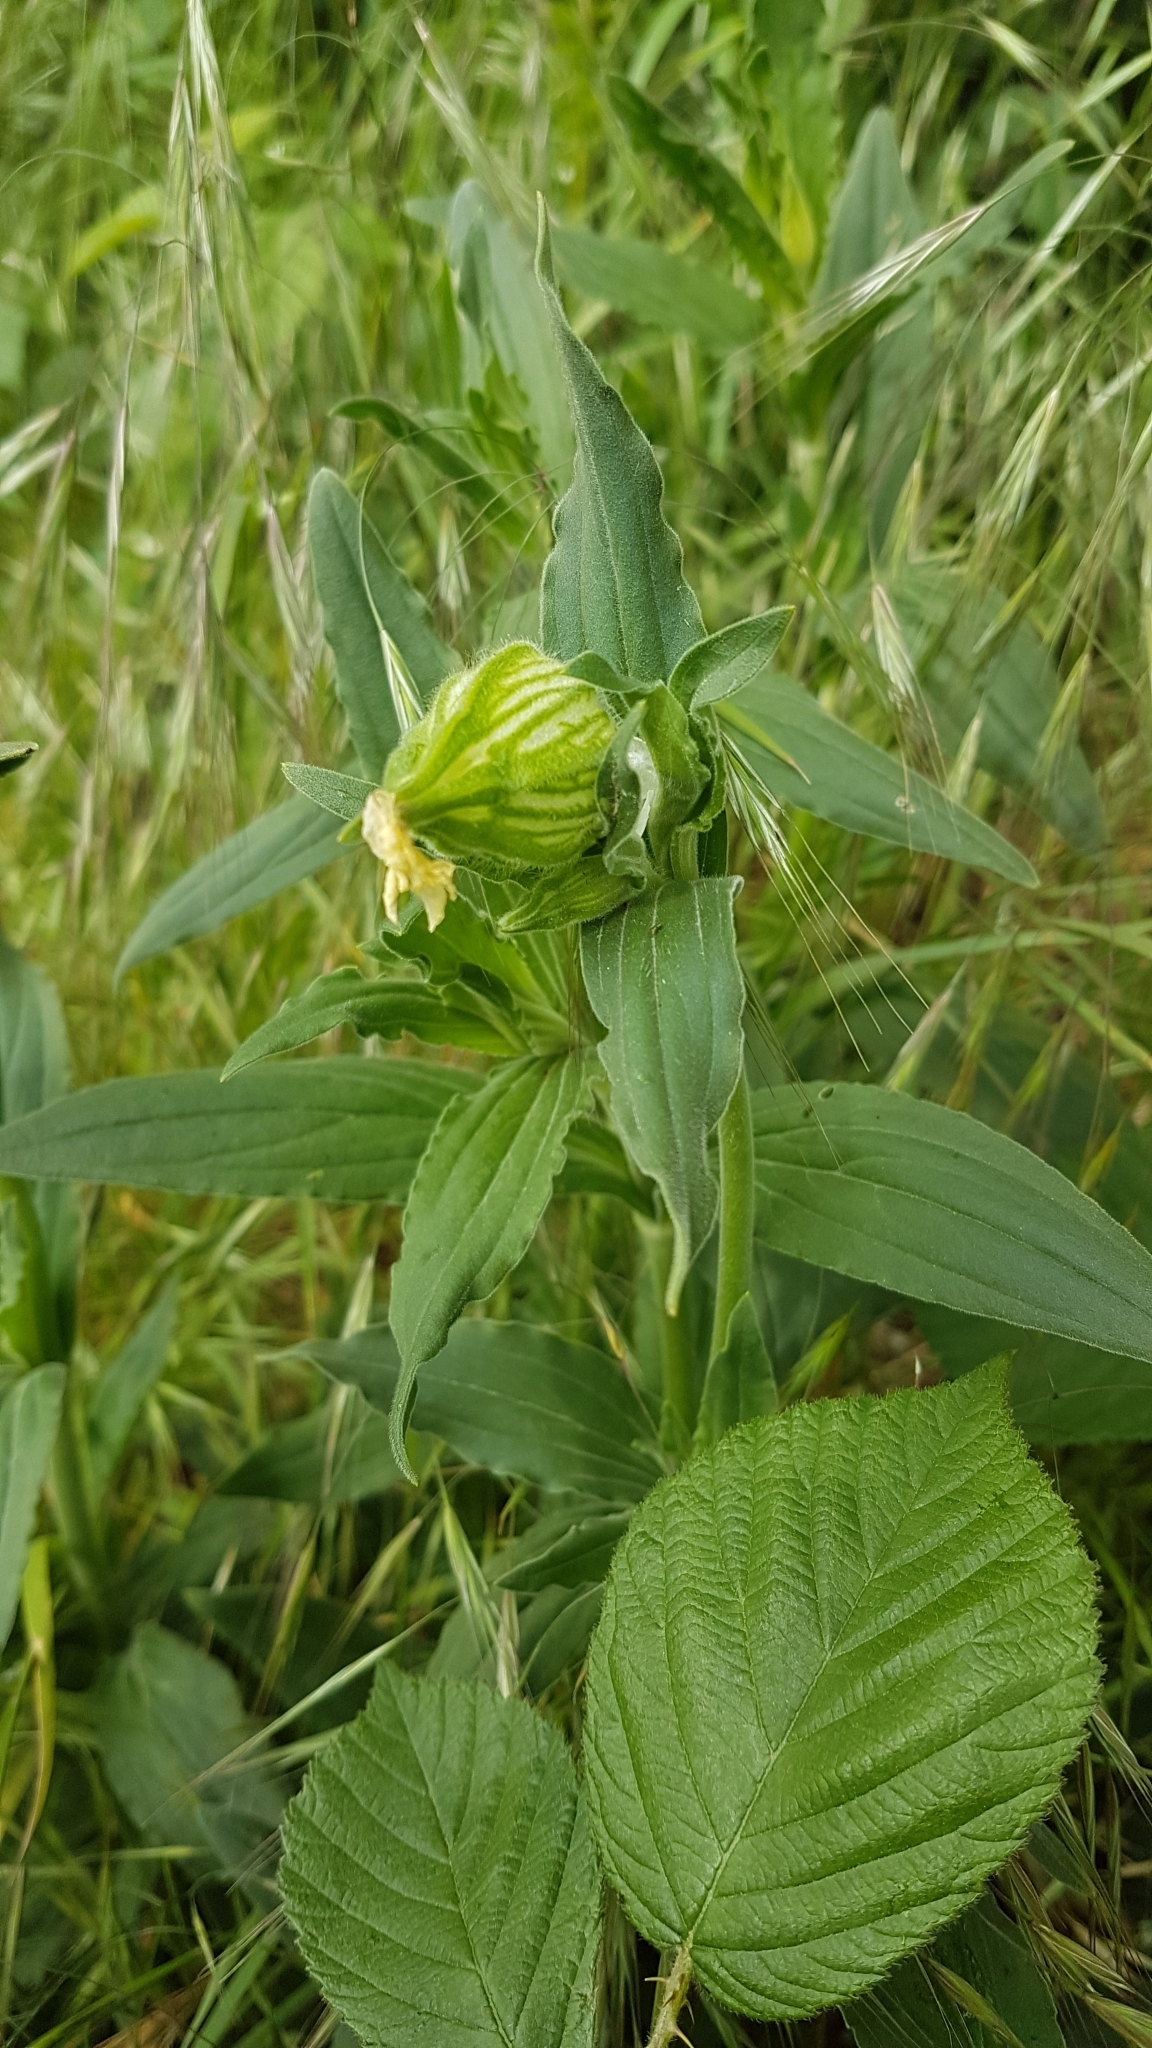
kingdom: Plantae
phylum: Tracheophyta
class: Magnoliopsida
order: Caryophyllales
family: Caryophyllaceae
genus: Silene
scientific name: Silene latifolia
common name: White campion
